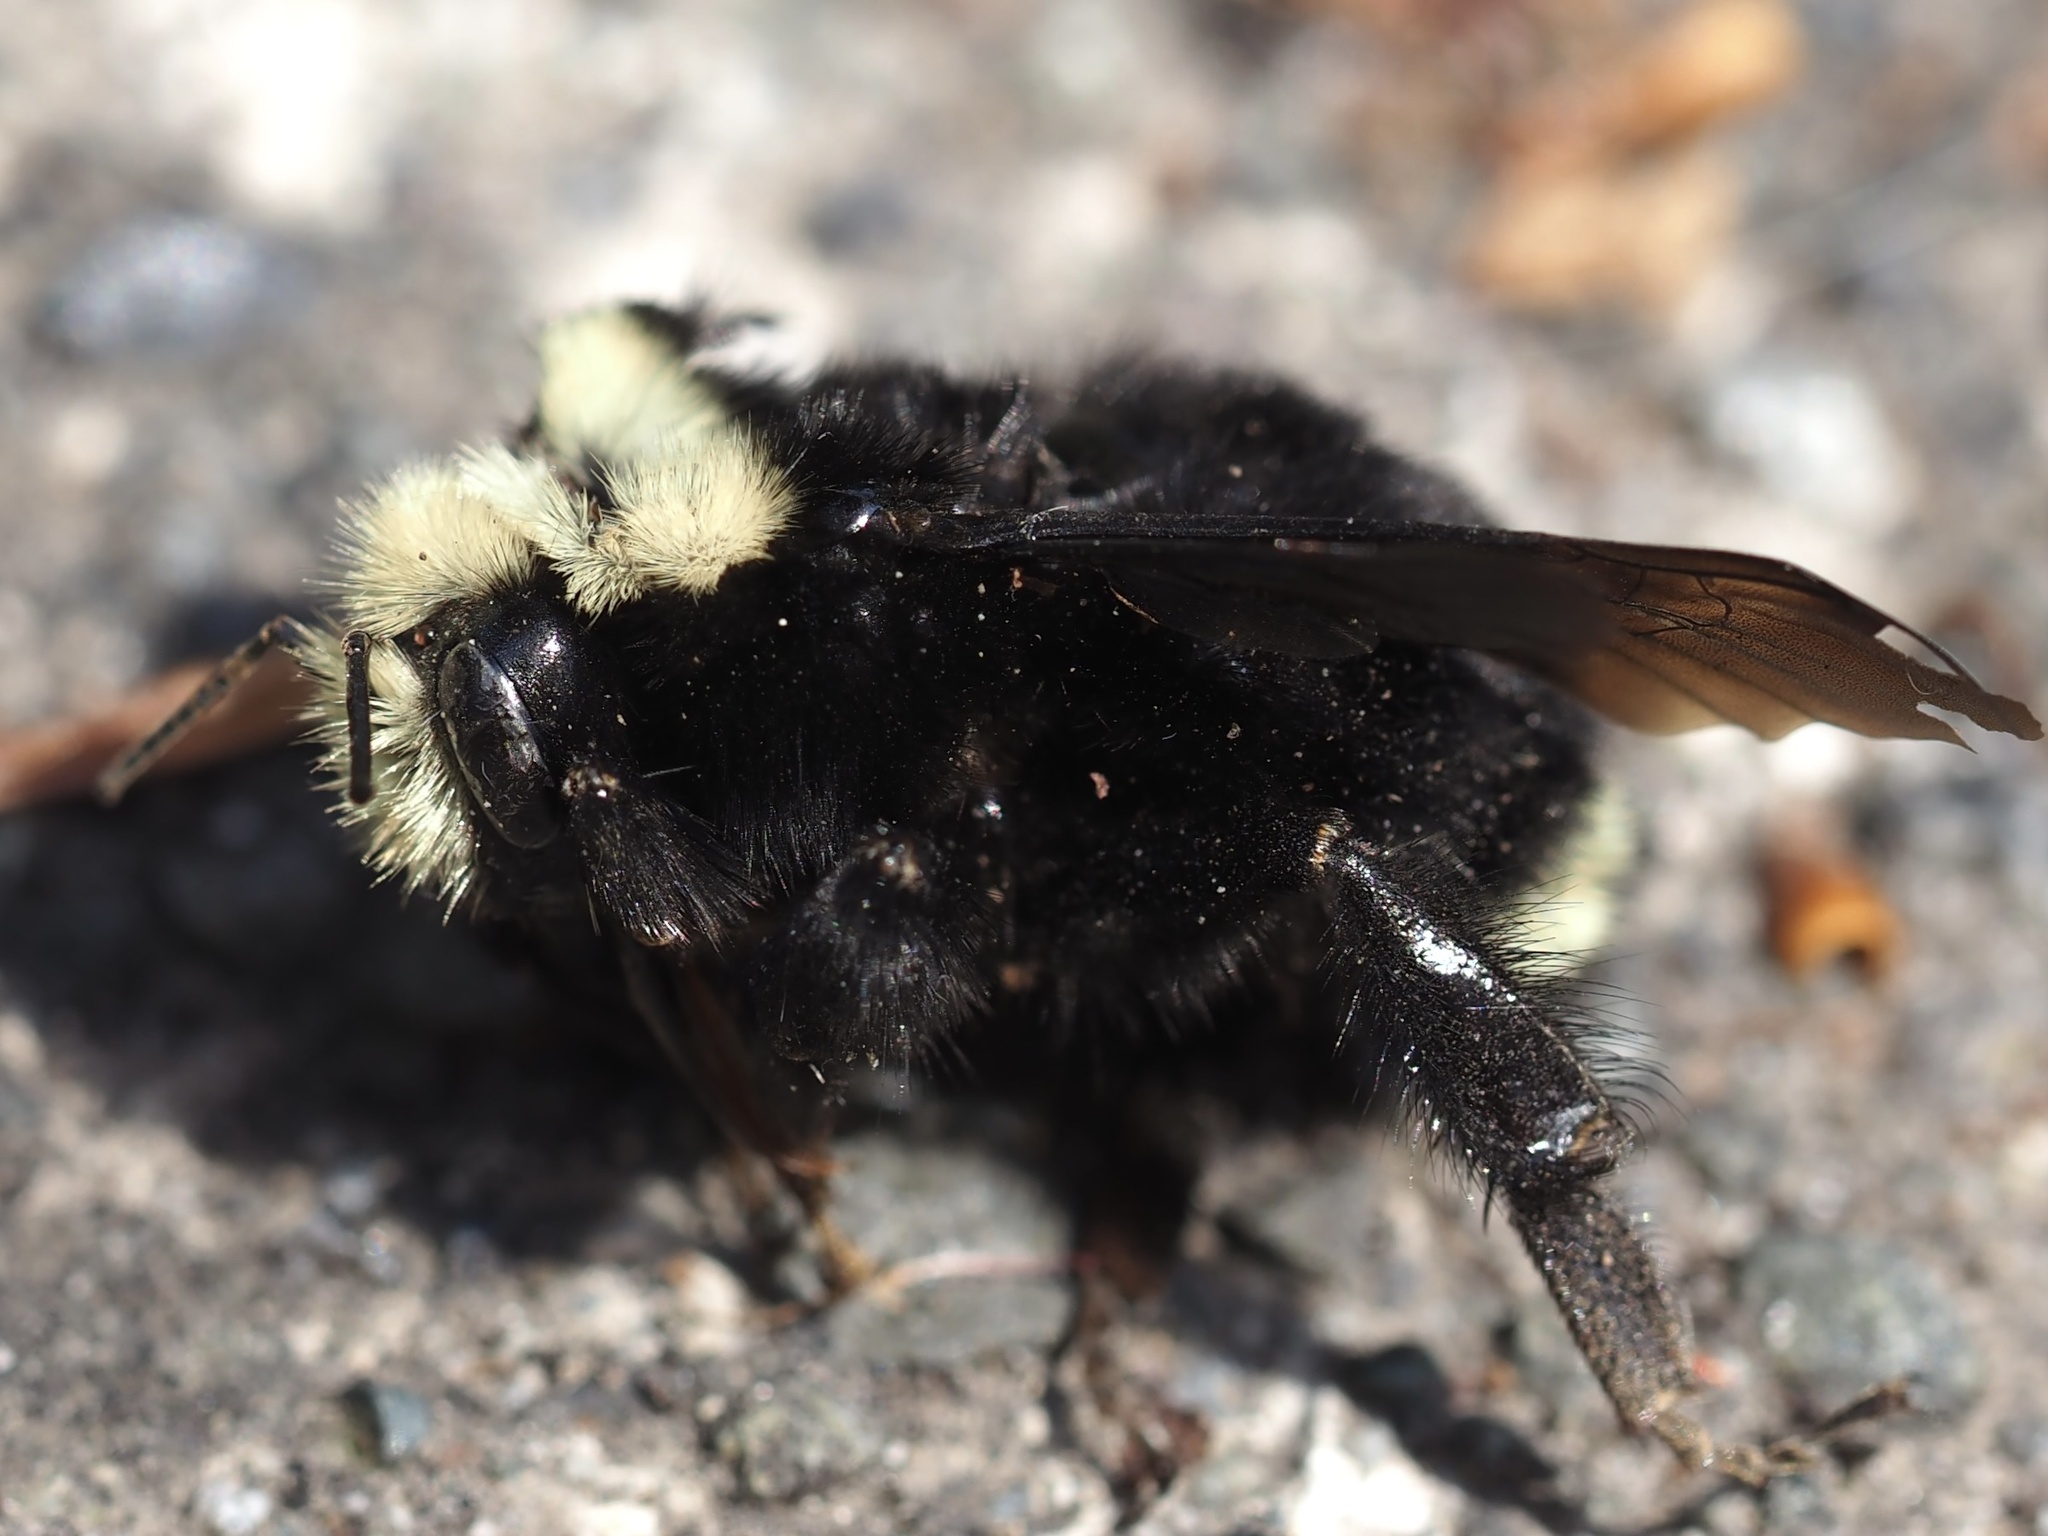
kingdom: Animalia
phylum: Arthropoda
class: Insecta
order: Hymenoptera
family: Apidae
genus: Bombus
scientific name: Bombus vosnesenskii
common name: Vosnesensky bumble bee
